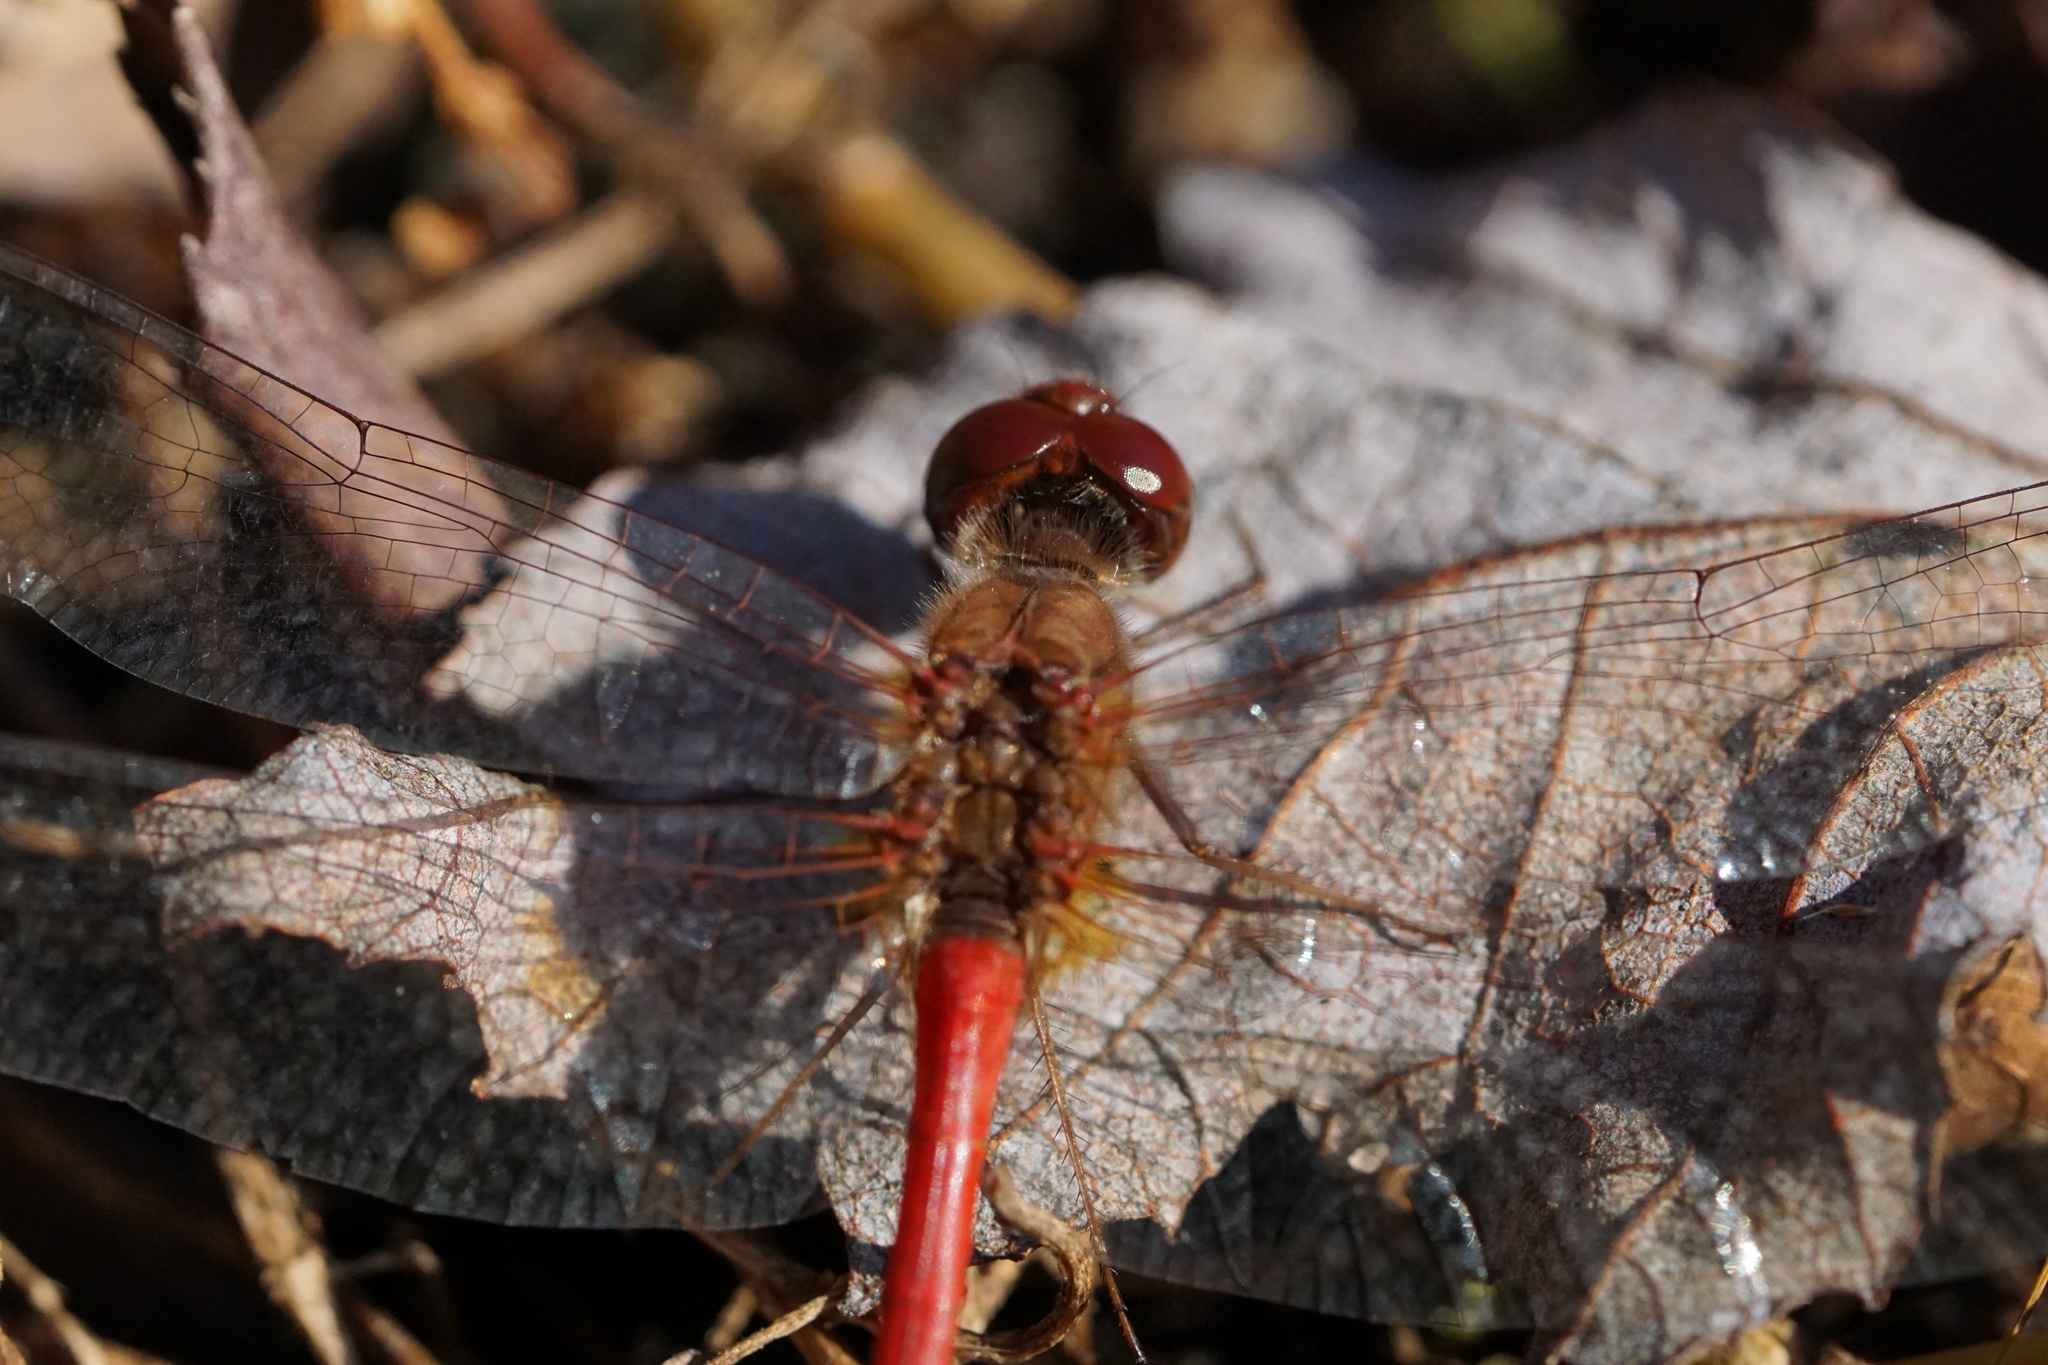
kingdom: Animalia
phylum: Arthropoda
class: Insecta
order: Odonata
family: Libellulidae
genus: Sympetrum
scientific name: Sympetrum vicinum
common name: Autumn meadowhawk
